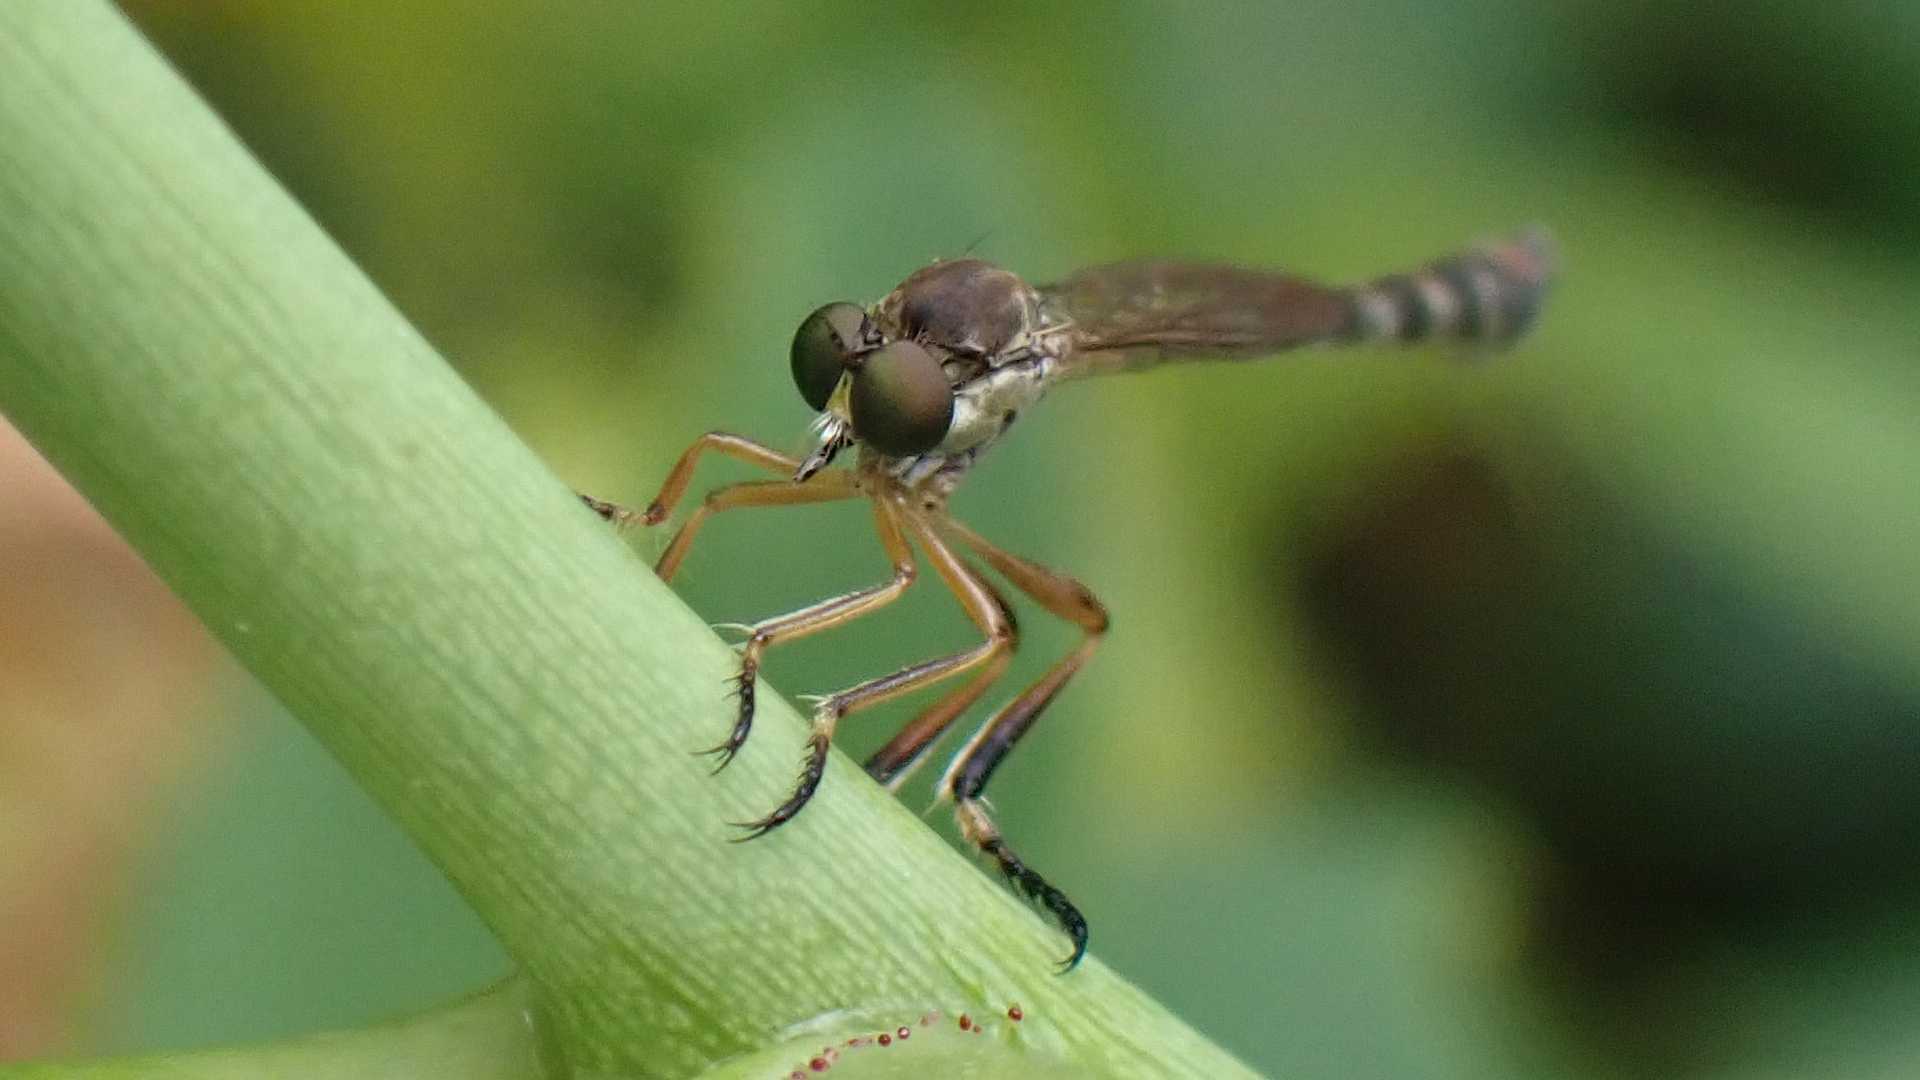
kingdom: Animalia
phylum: Arthropoda
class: Insecta
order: Diptera
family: Asilidae
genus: Leptogaster
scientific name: Leptogaster cylindrica
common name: Striped slender robberfly
